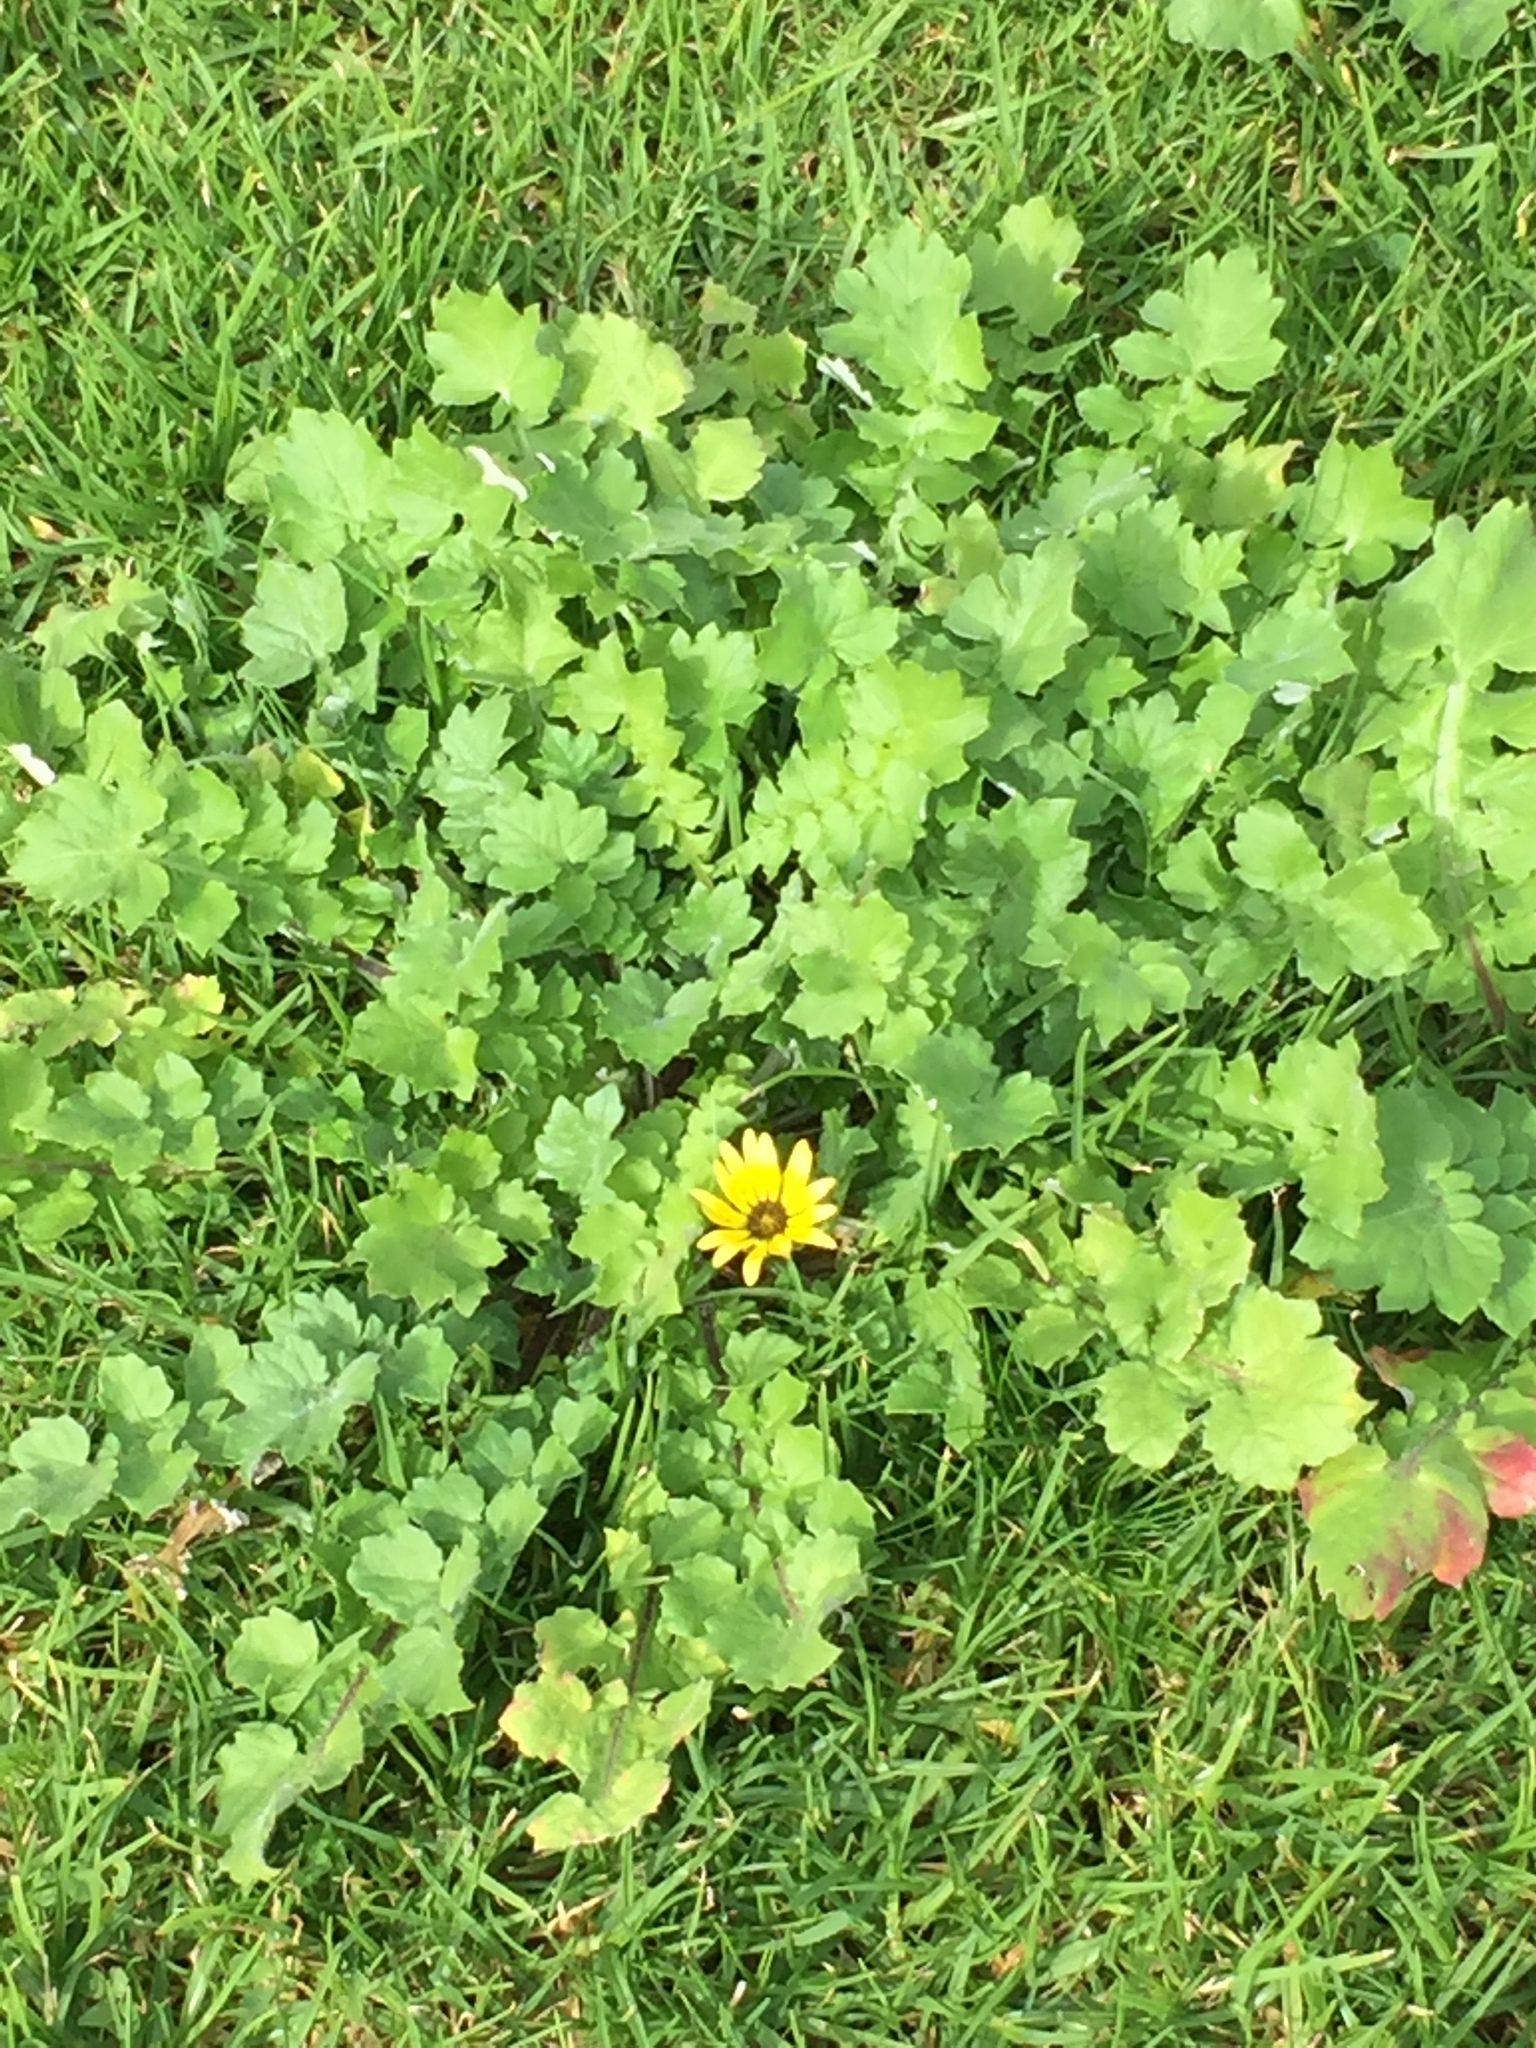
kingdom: Plantae
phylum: Tracheophyta
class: Magnoliopsida
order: Asterales
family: Asteraceae
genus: Arctotheca
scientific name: Arctotheca calendula
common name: Capeweed
